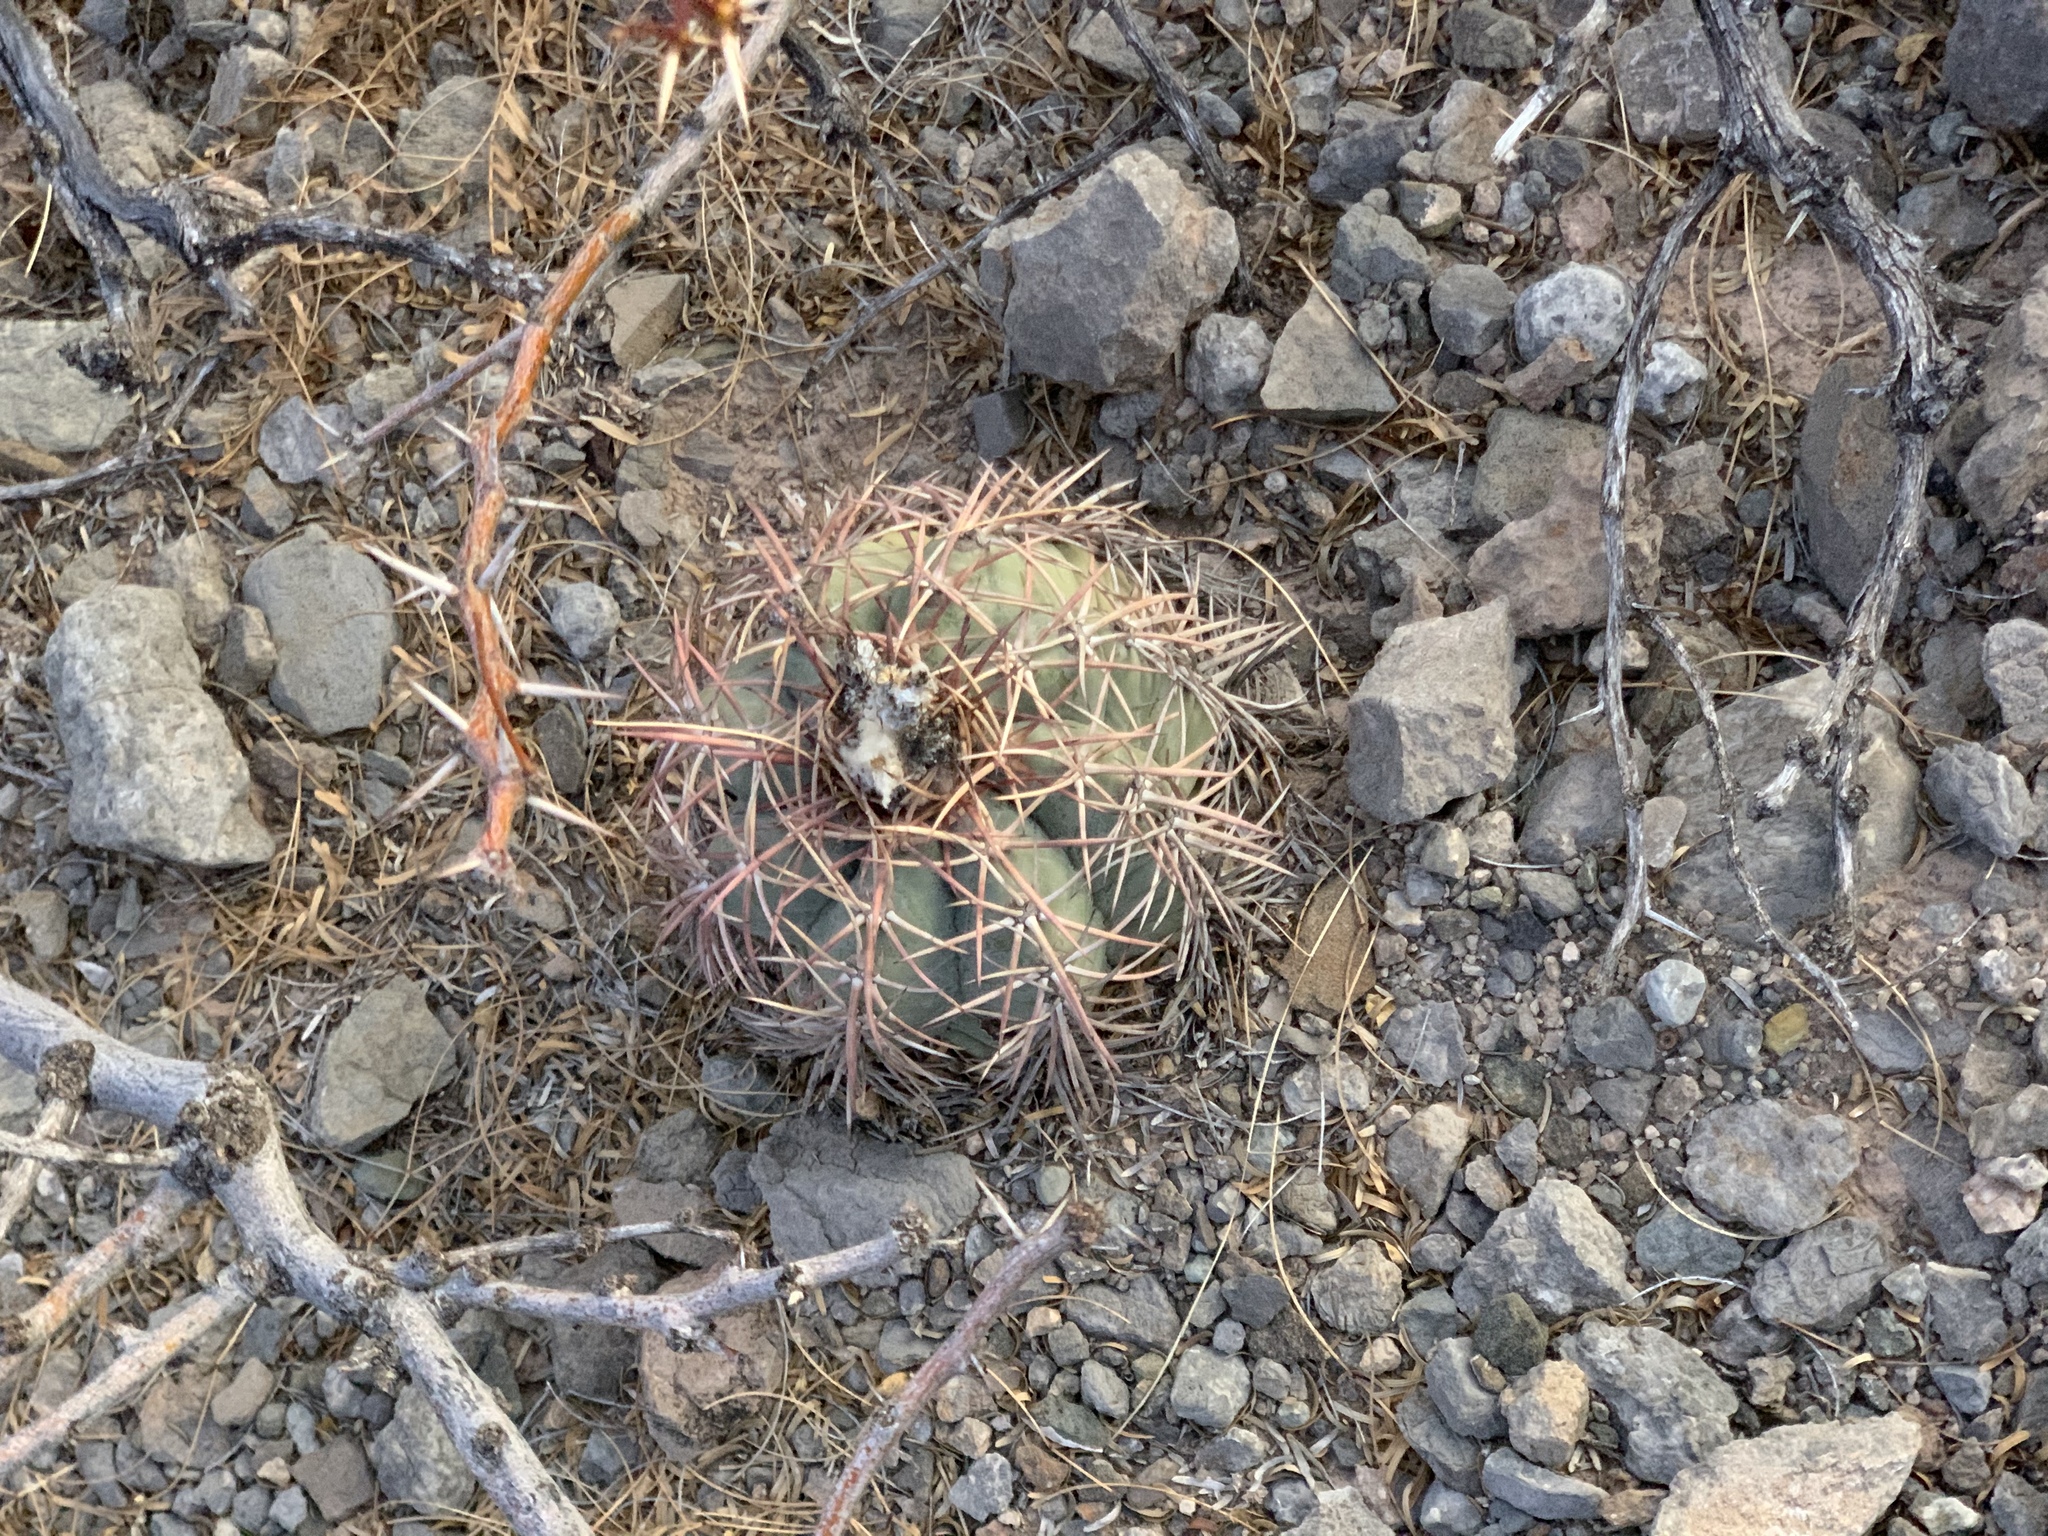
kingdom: Plantae
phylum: Tracheophyta
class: Magnoliopsida
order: Caryophyllales
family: Cactaceae
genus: Echinocactus
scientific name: Echinocactus horizonthalonius
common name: Devilshead
